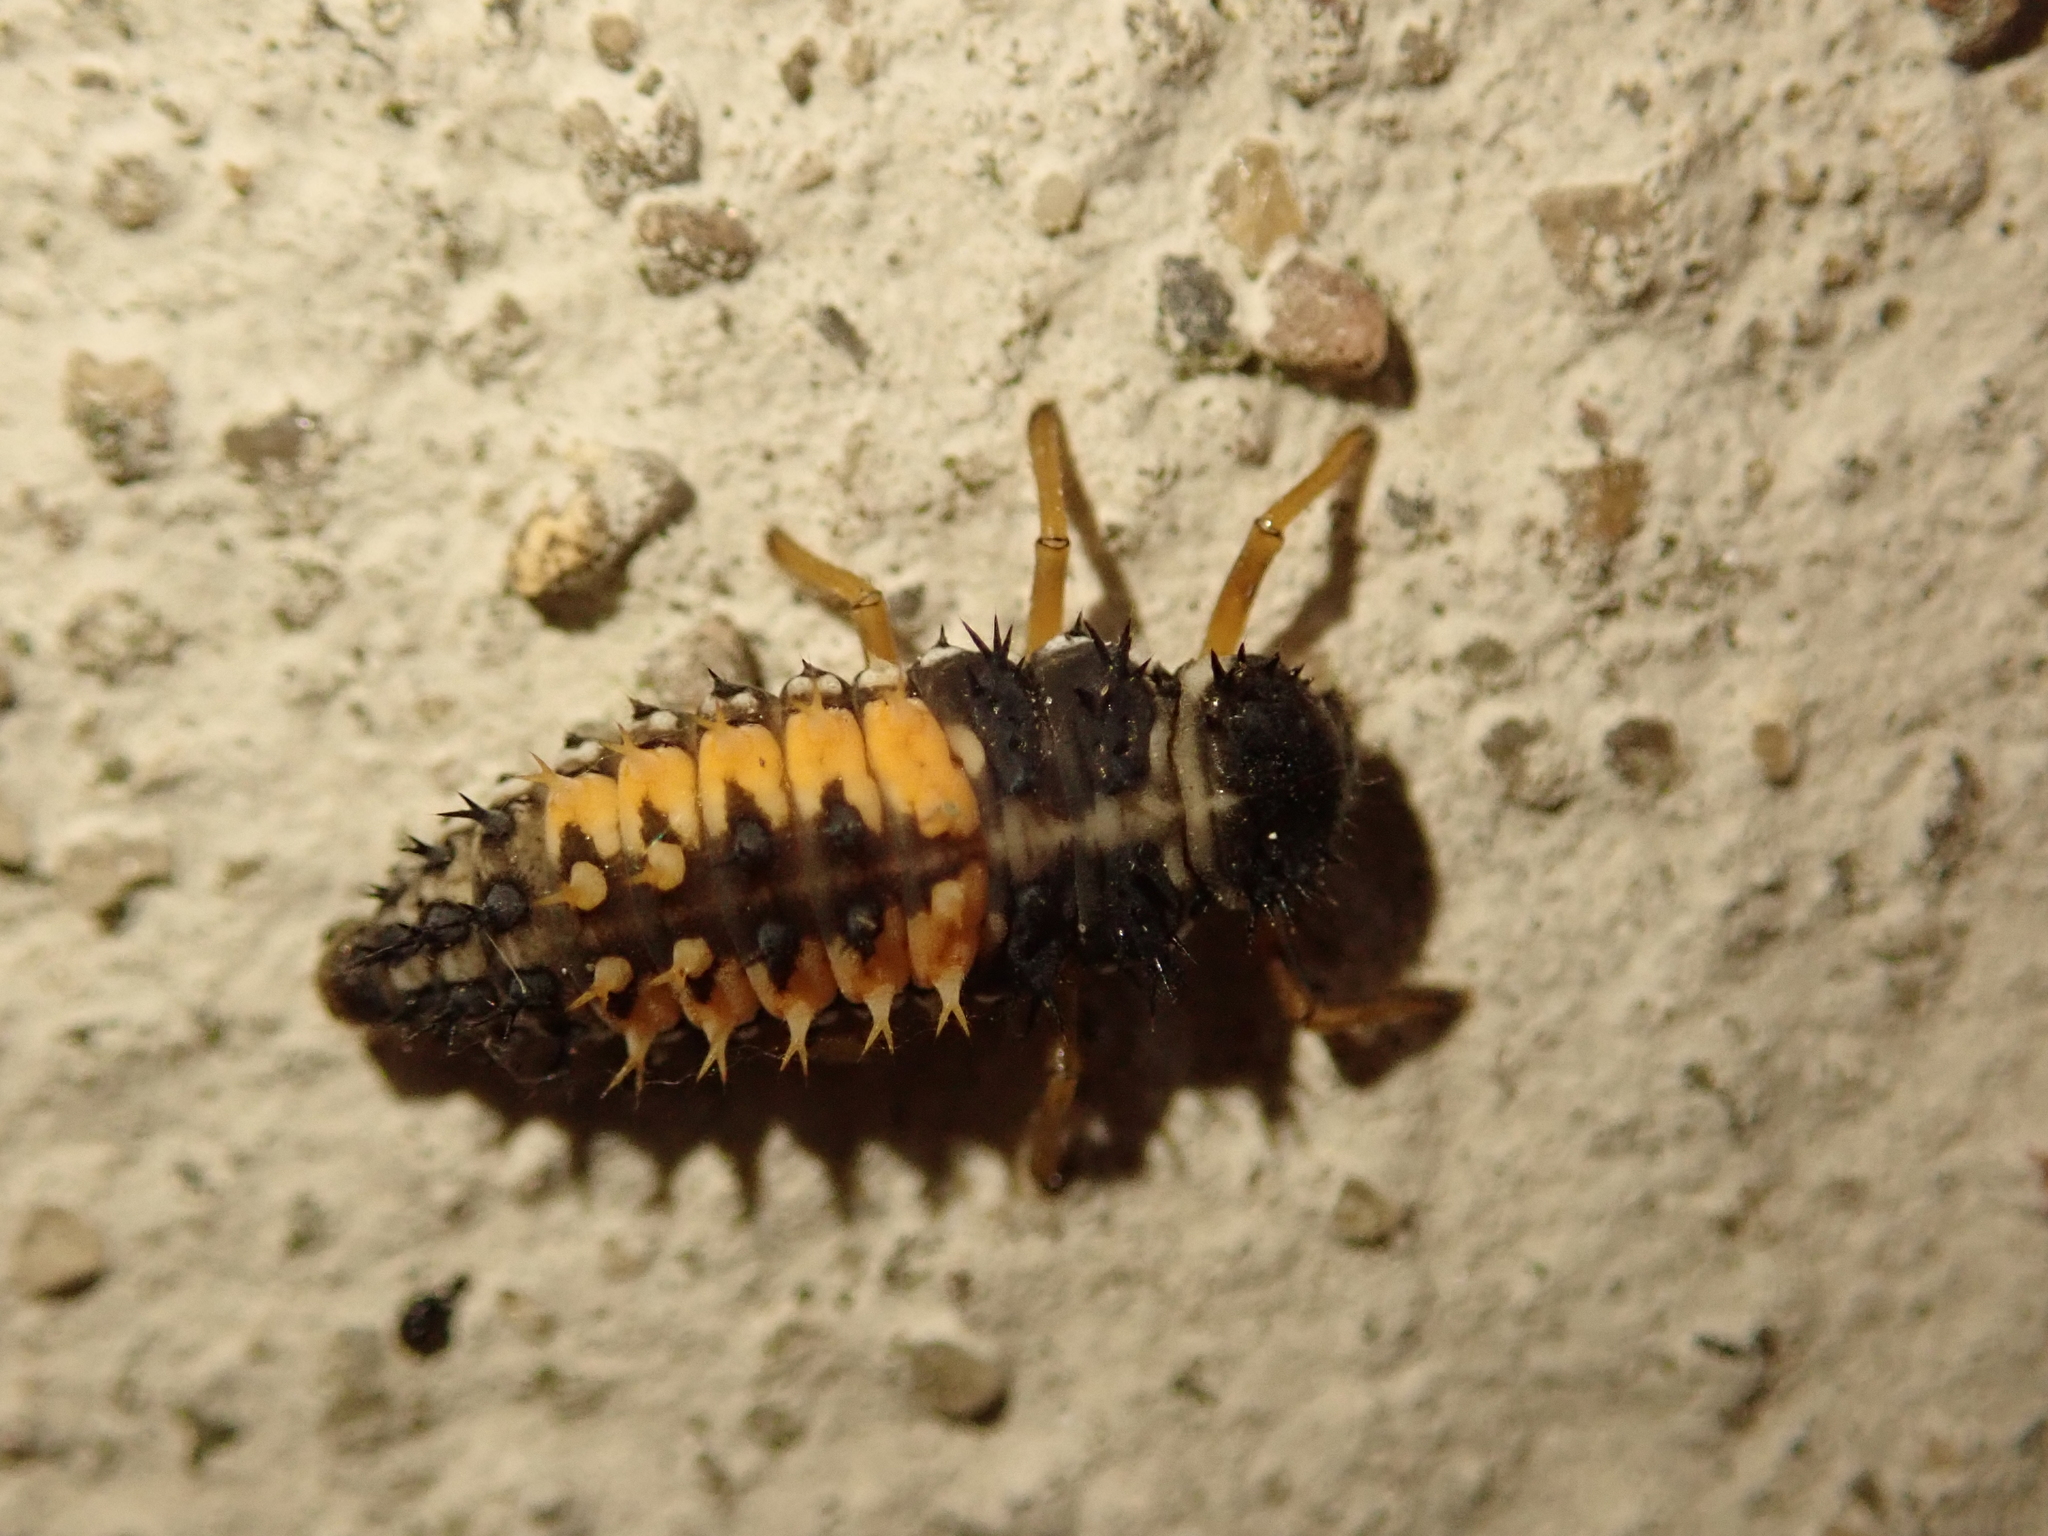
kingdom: Animalia
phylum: Arthropoda
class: Insecta
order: Coleoptera
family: Coccinellidae
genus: Harmonia
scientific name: Harmonia axyridis
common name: Harlequin ladybird
